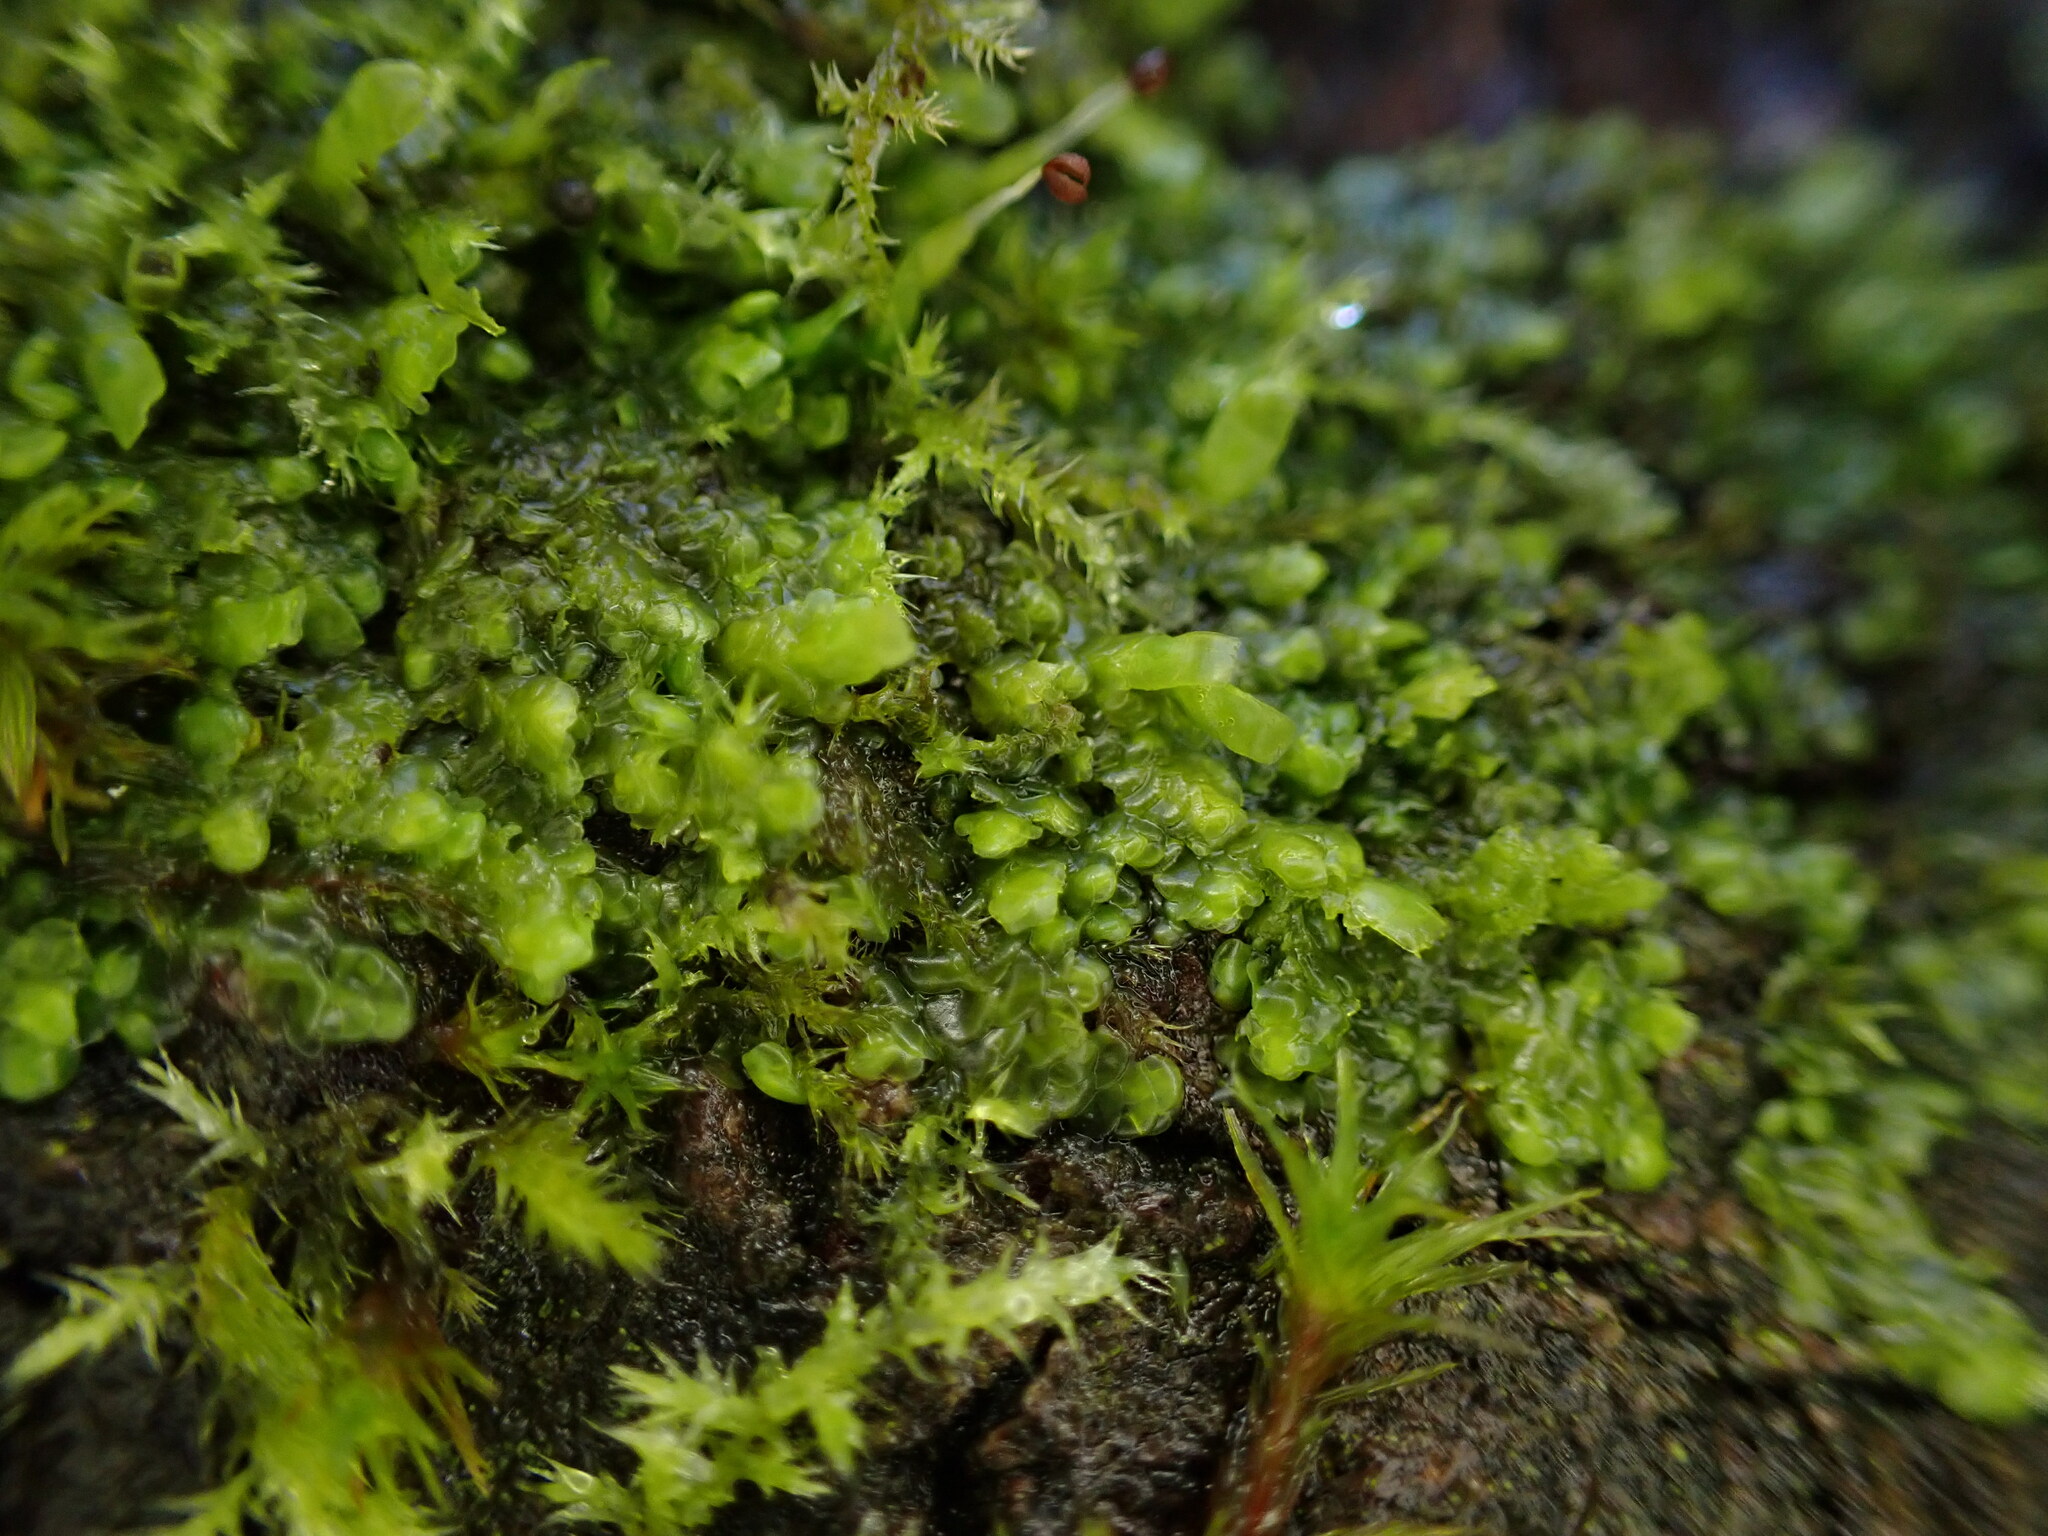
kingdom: Plantae
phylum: Marchantiophyta
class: Jungermanniopsida
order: Porellales
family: Radulaceae
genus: Radula
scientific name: Radula complanata
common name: Flat-leaved scalewort
